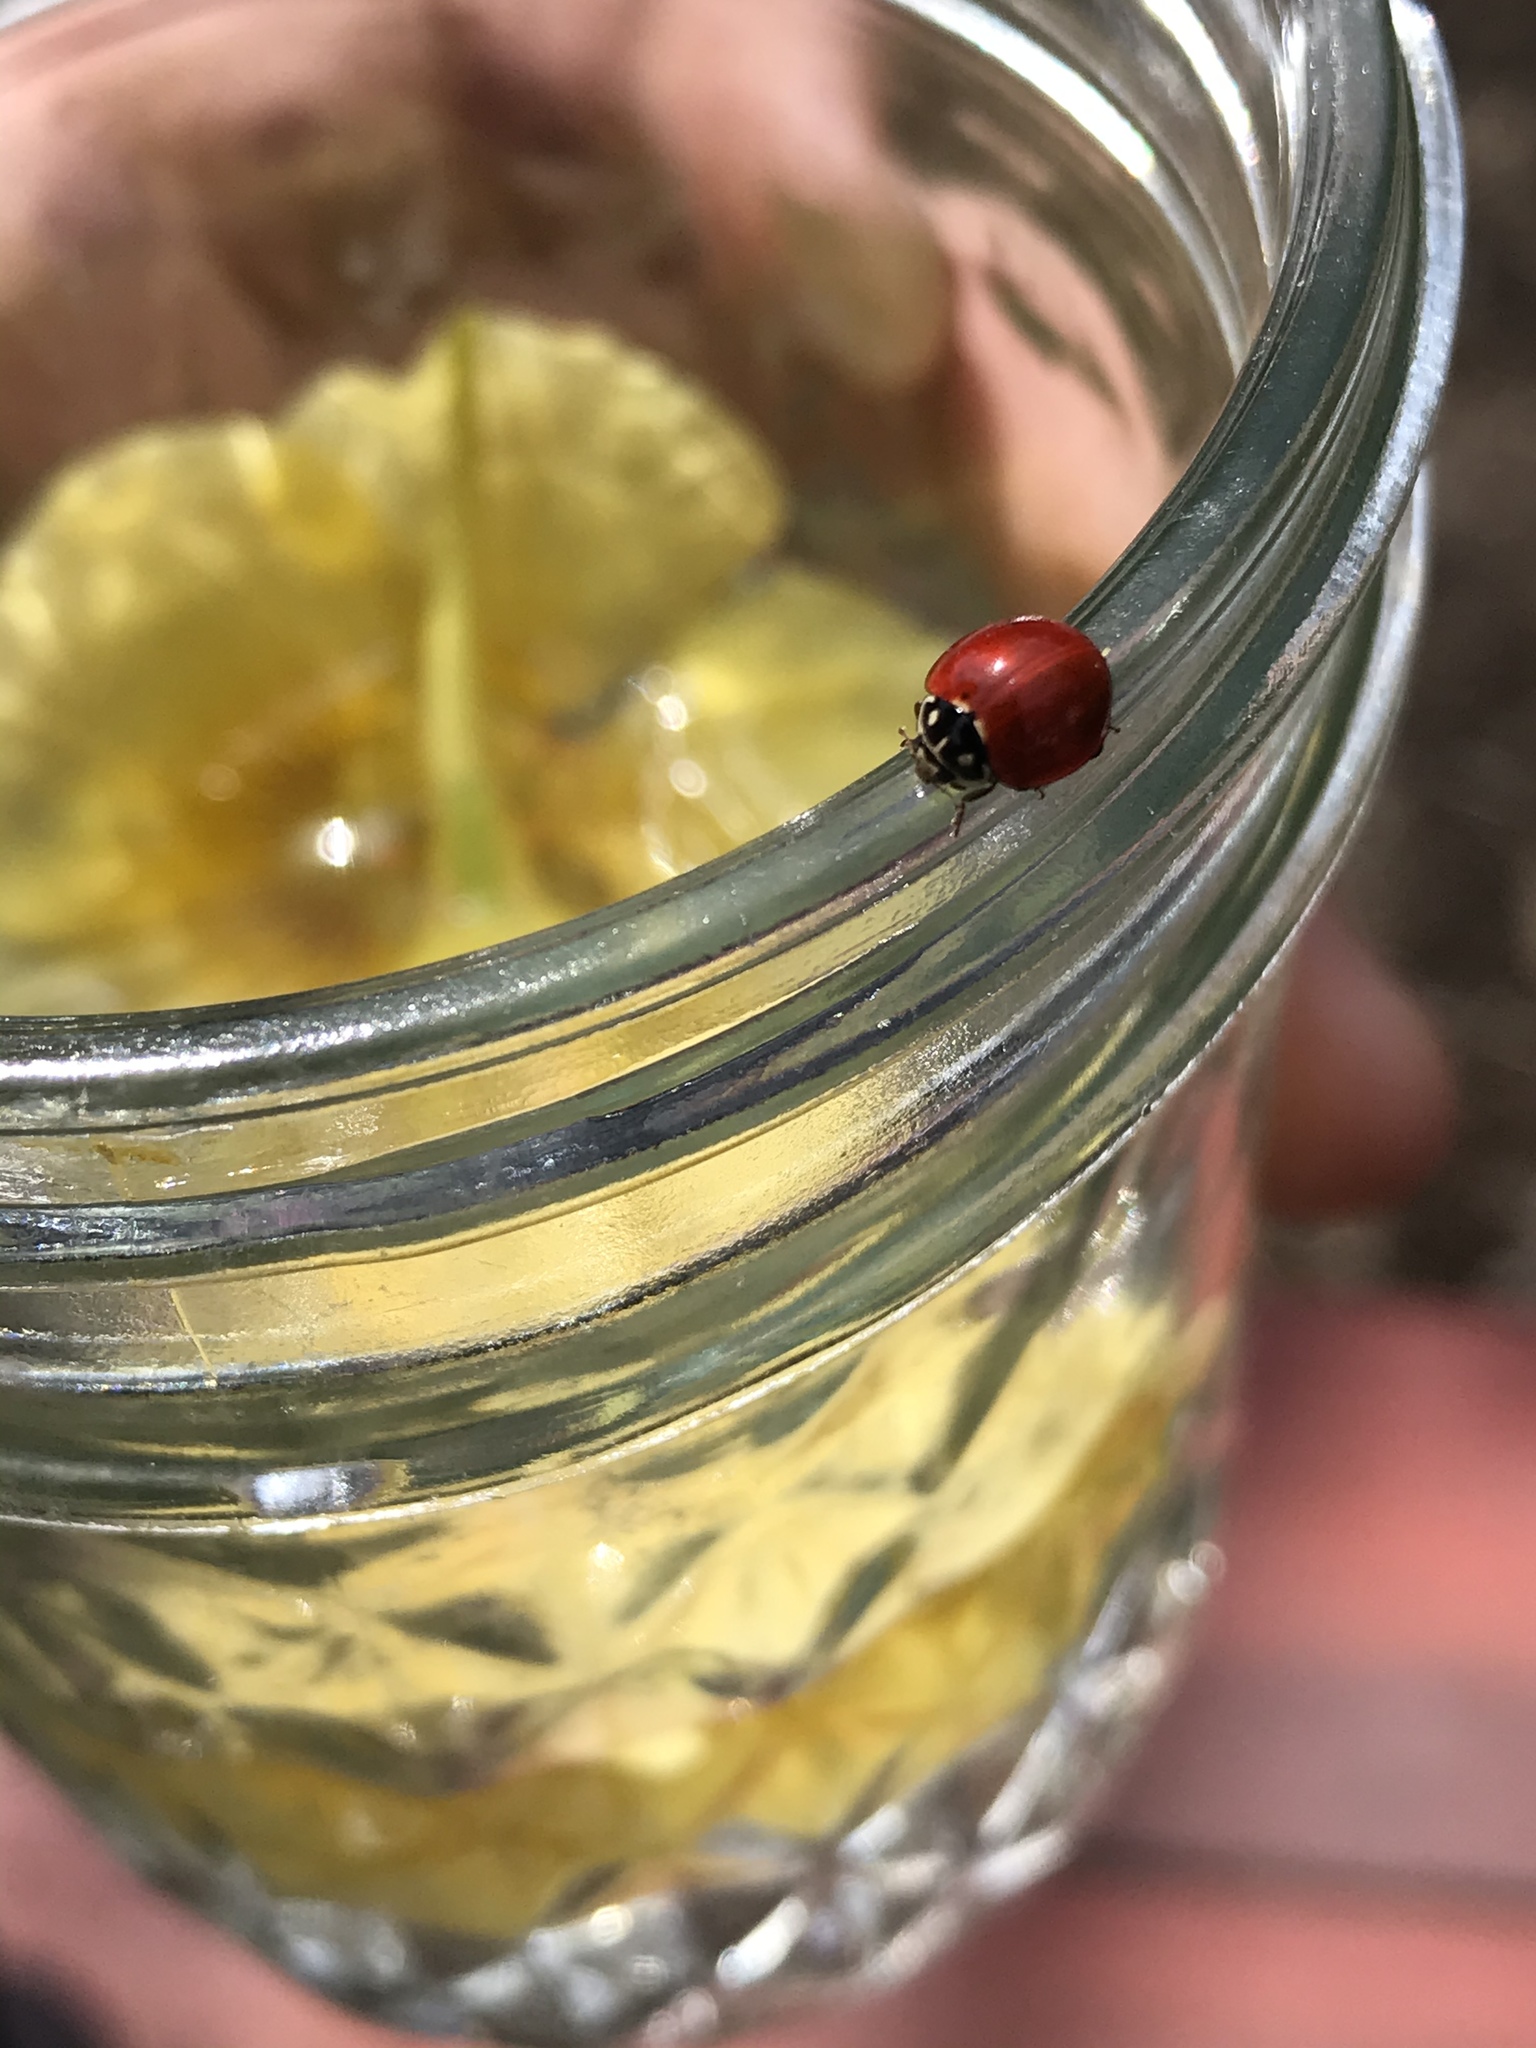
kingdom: Animalia
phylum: Arthropoda
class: Insecta
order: Coleoptera
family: Coccinellidae
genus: Cycloneda
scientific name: Cycloneda sanguinea
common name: Ladybird beetle
